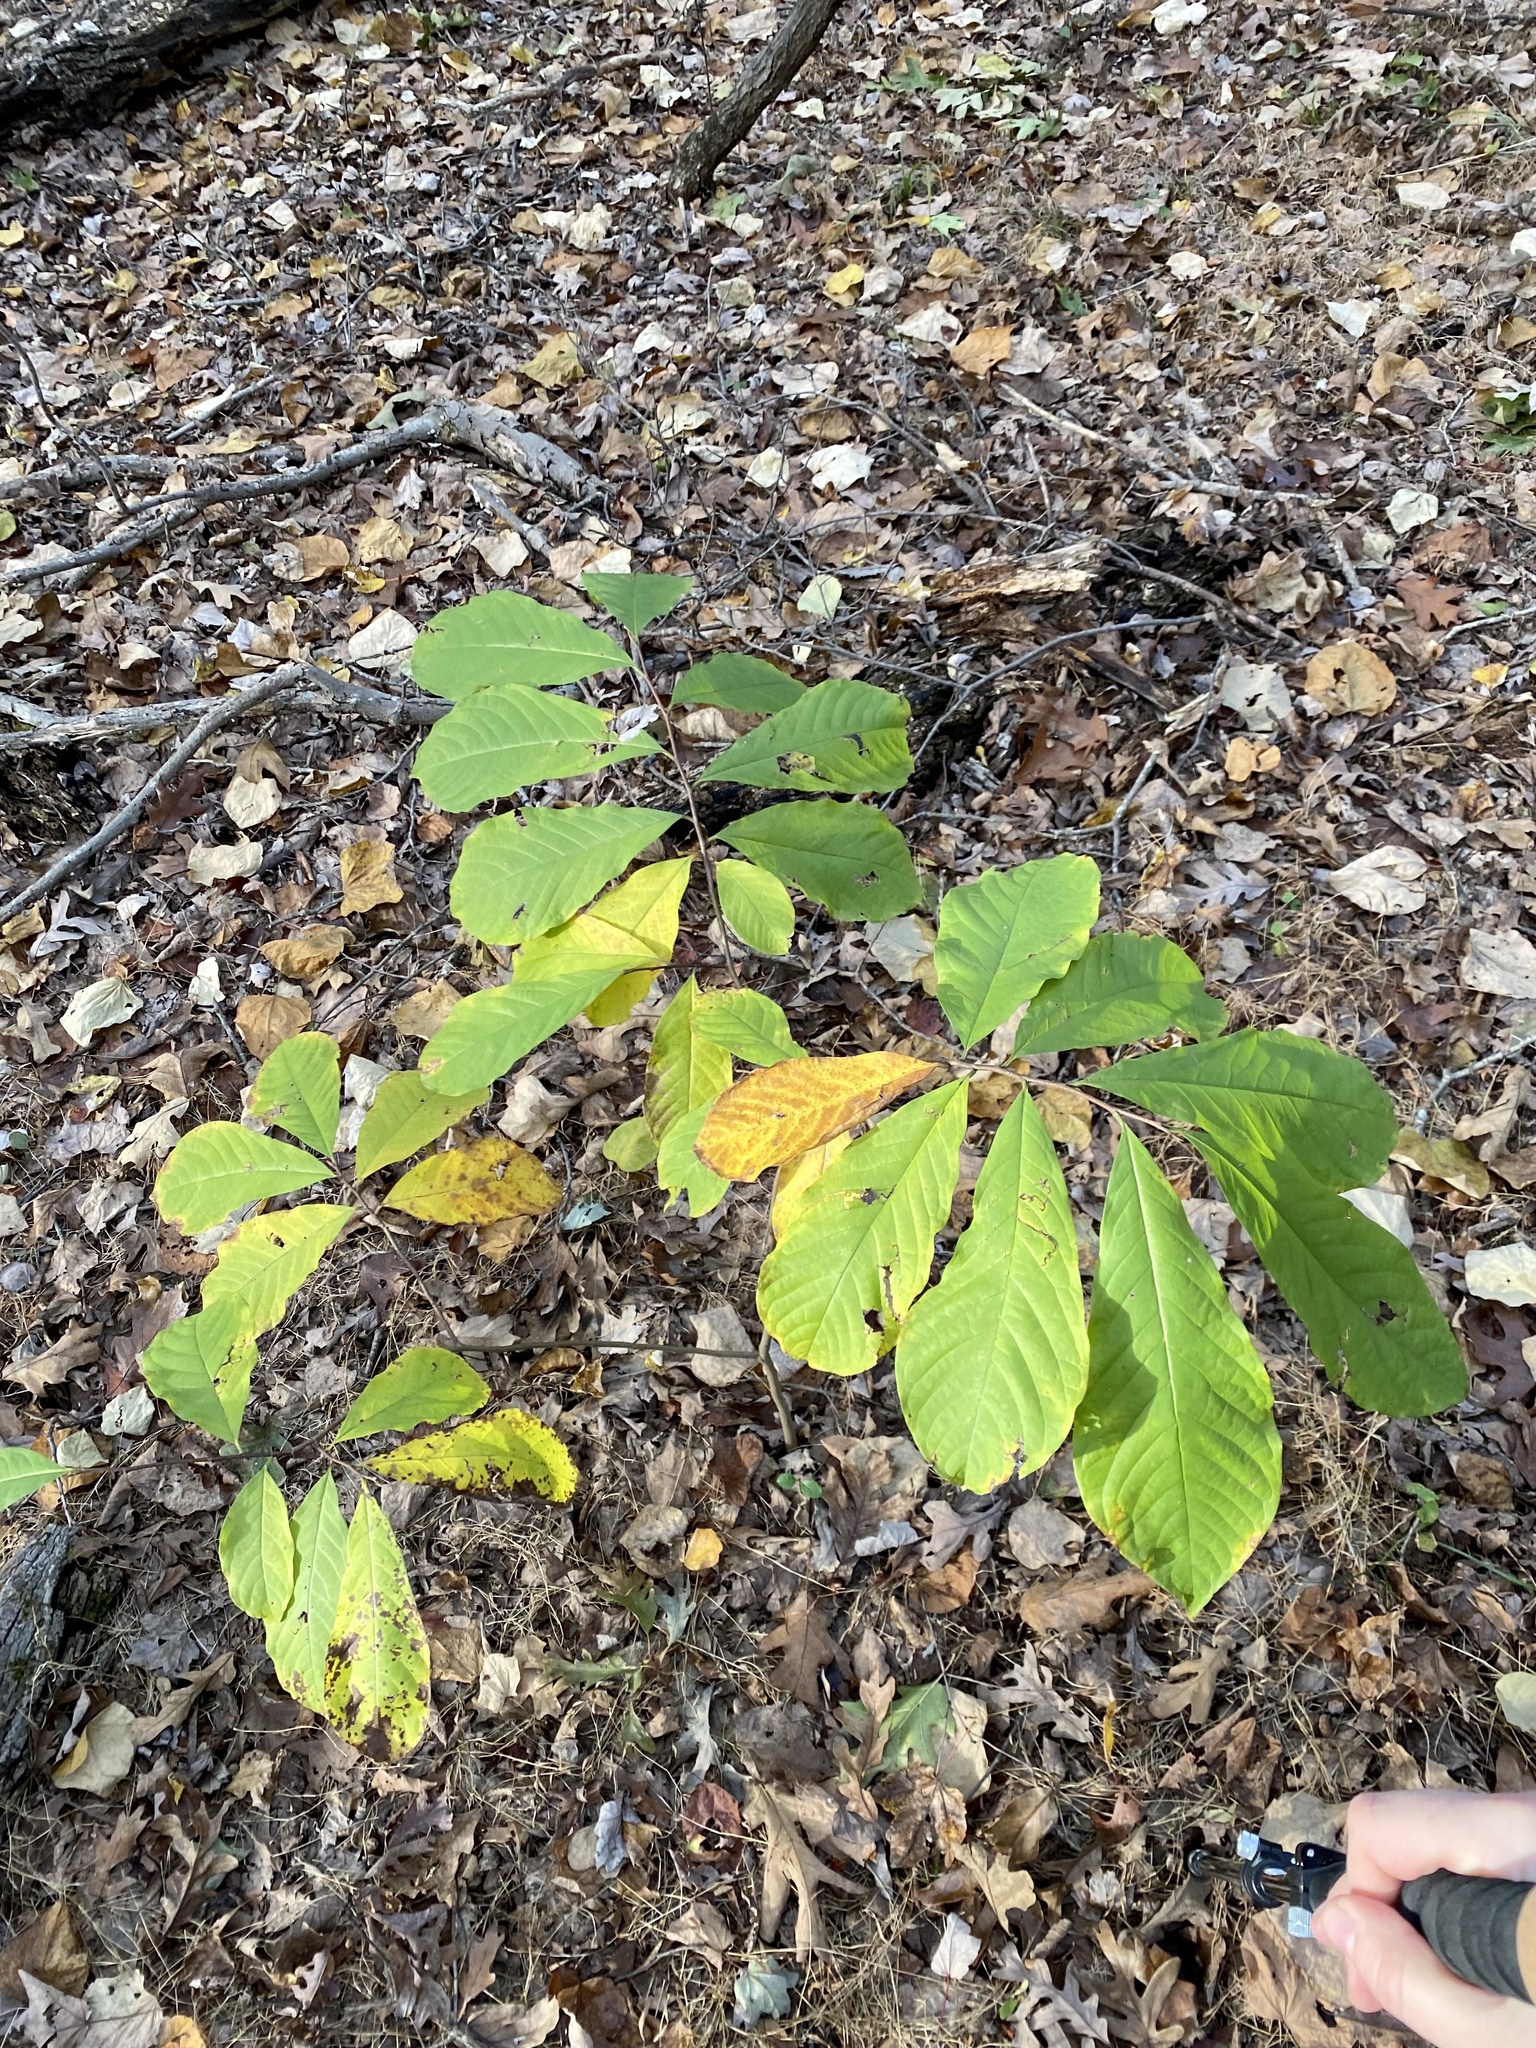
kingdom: Plantae
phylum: Tracheophyta
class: Magnoliopsida
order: Magnoliales
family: Annonaceae
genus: Asimina
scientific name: Asimina triloba
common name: Dog-banana
